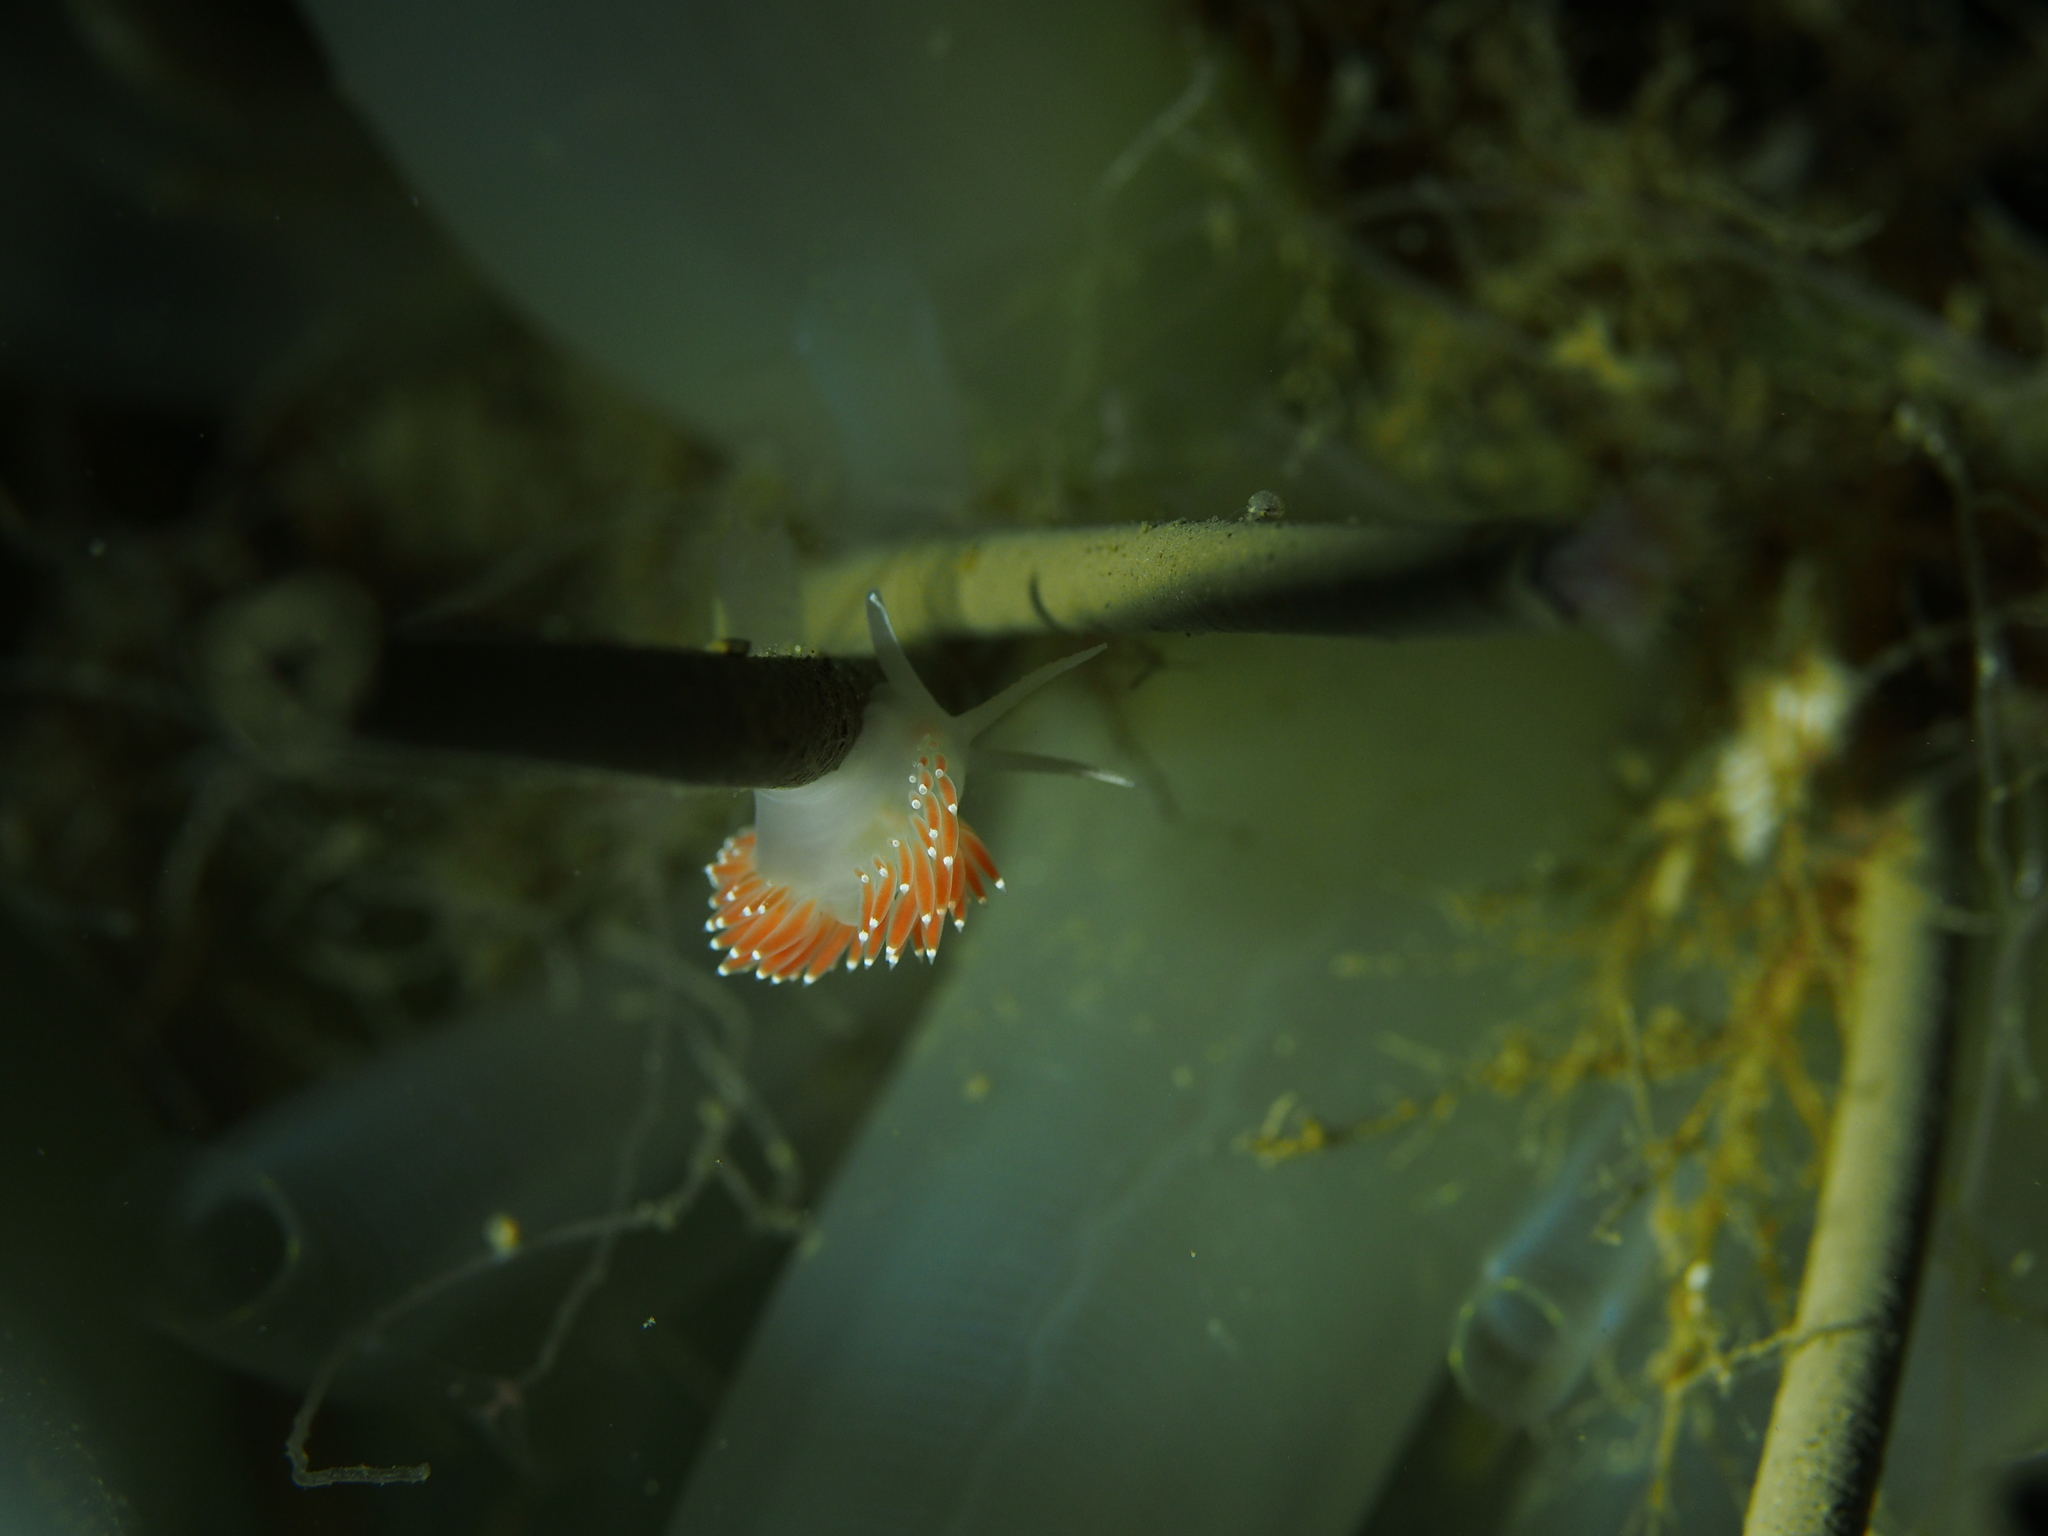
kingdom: Animalia
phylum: Mollusca
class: Gastropoda
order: Nudibranchia
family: Coryphellidae
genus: Coryphella
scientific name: Coryphella verrucosa
